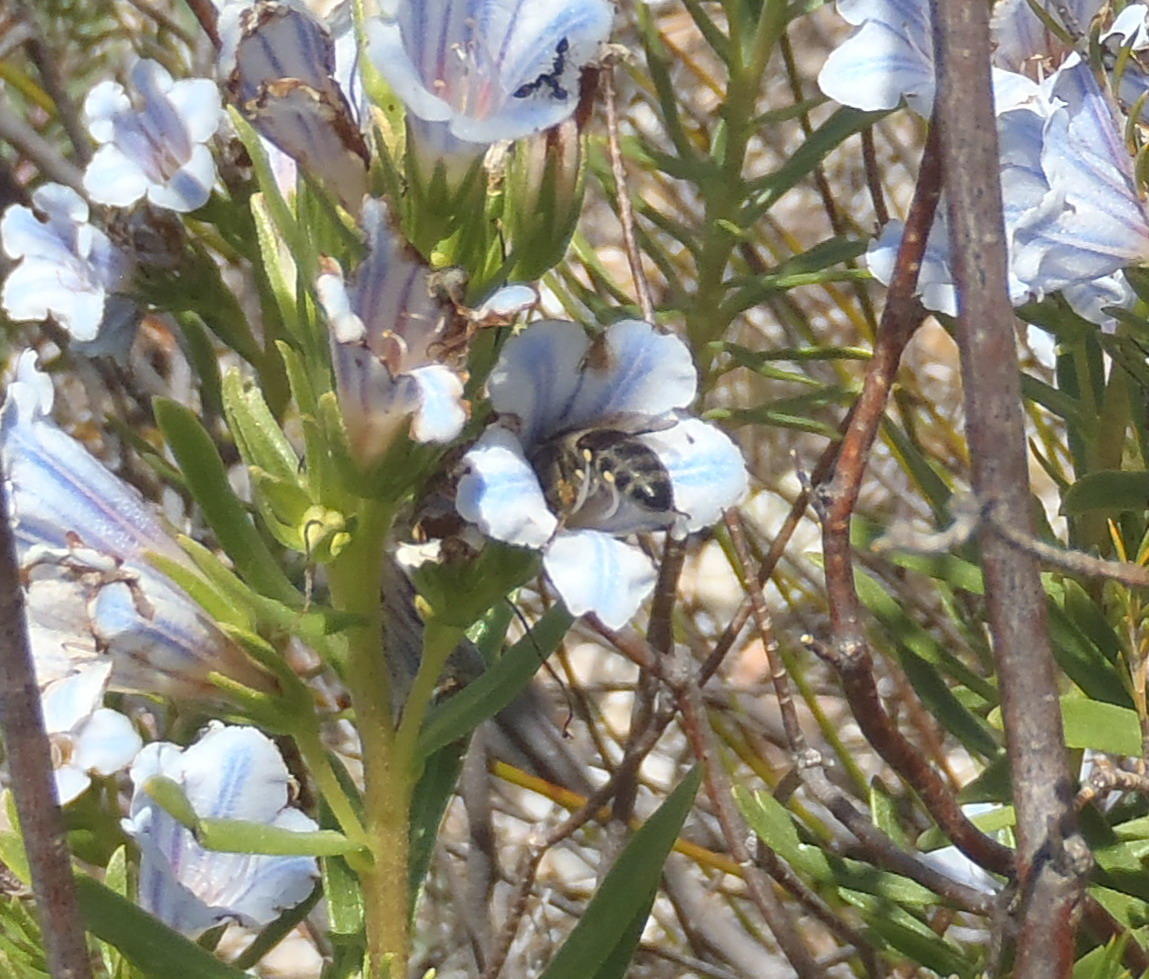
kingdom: Animalia
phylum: Arthropoda
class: Insecta
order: Hymenoptera
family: Apidae
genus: Apis
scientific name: Apis mellifera
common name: Honey bee
